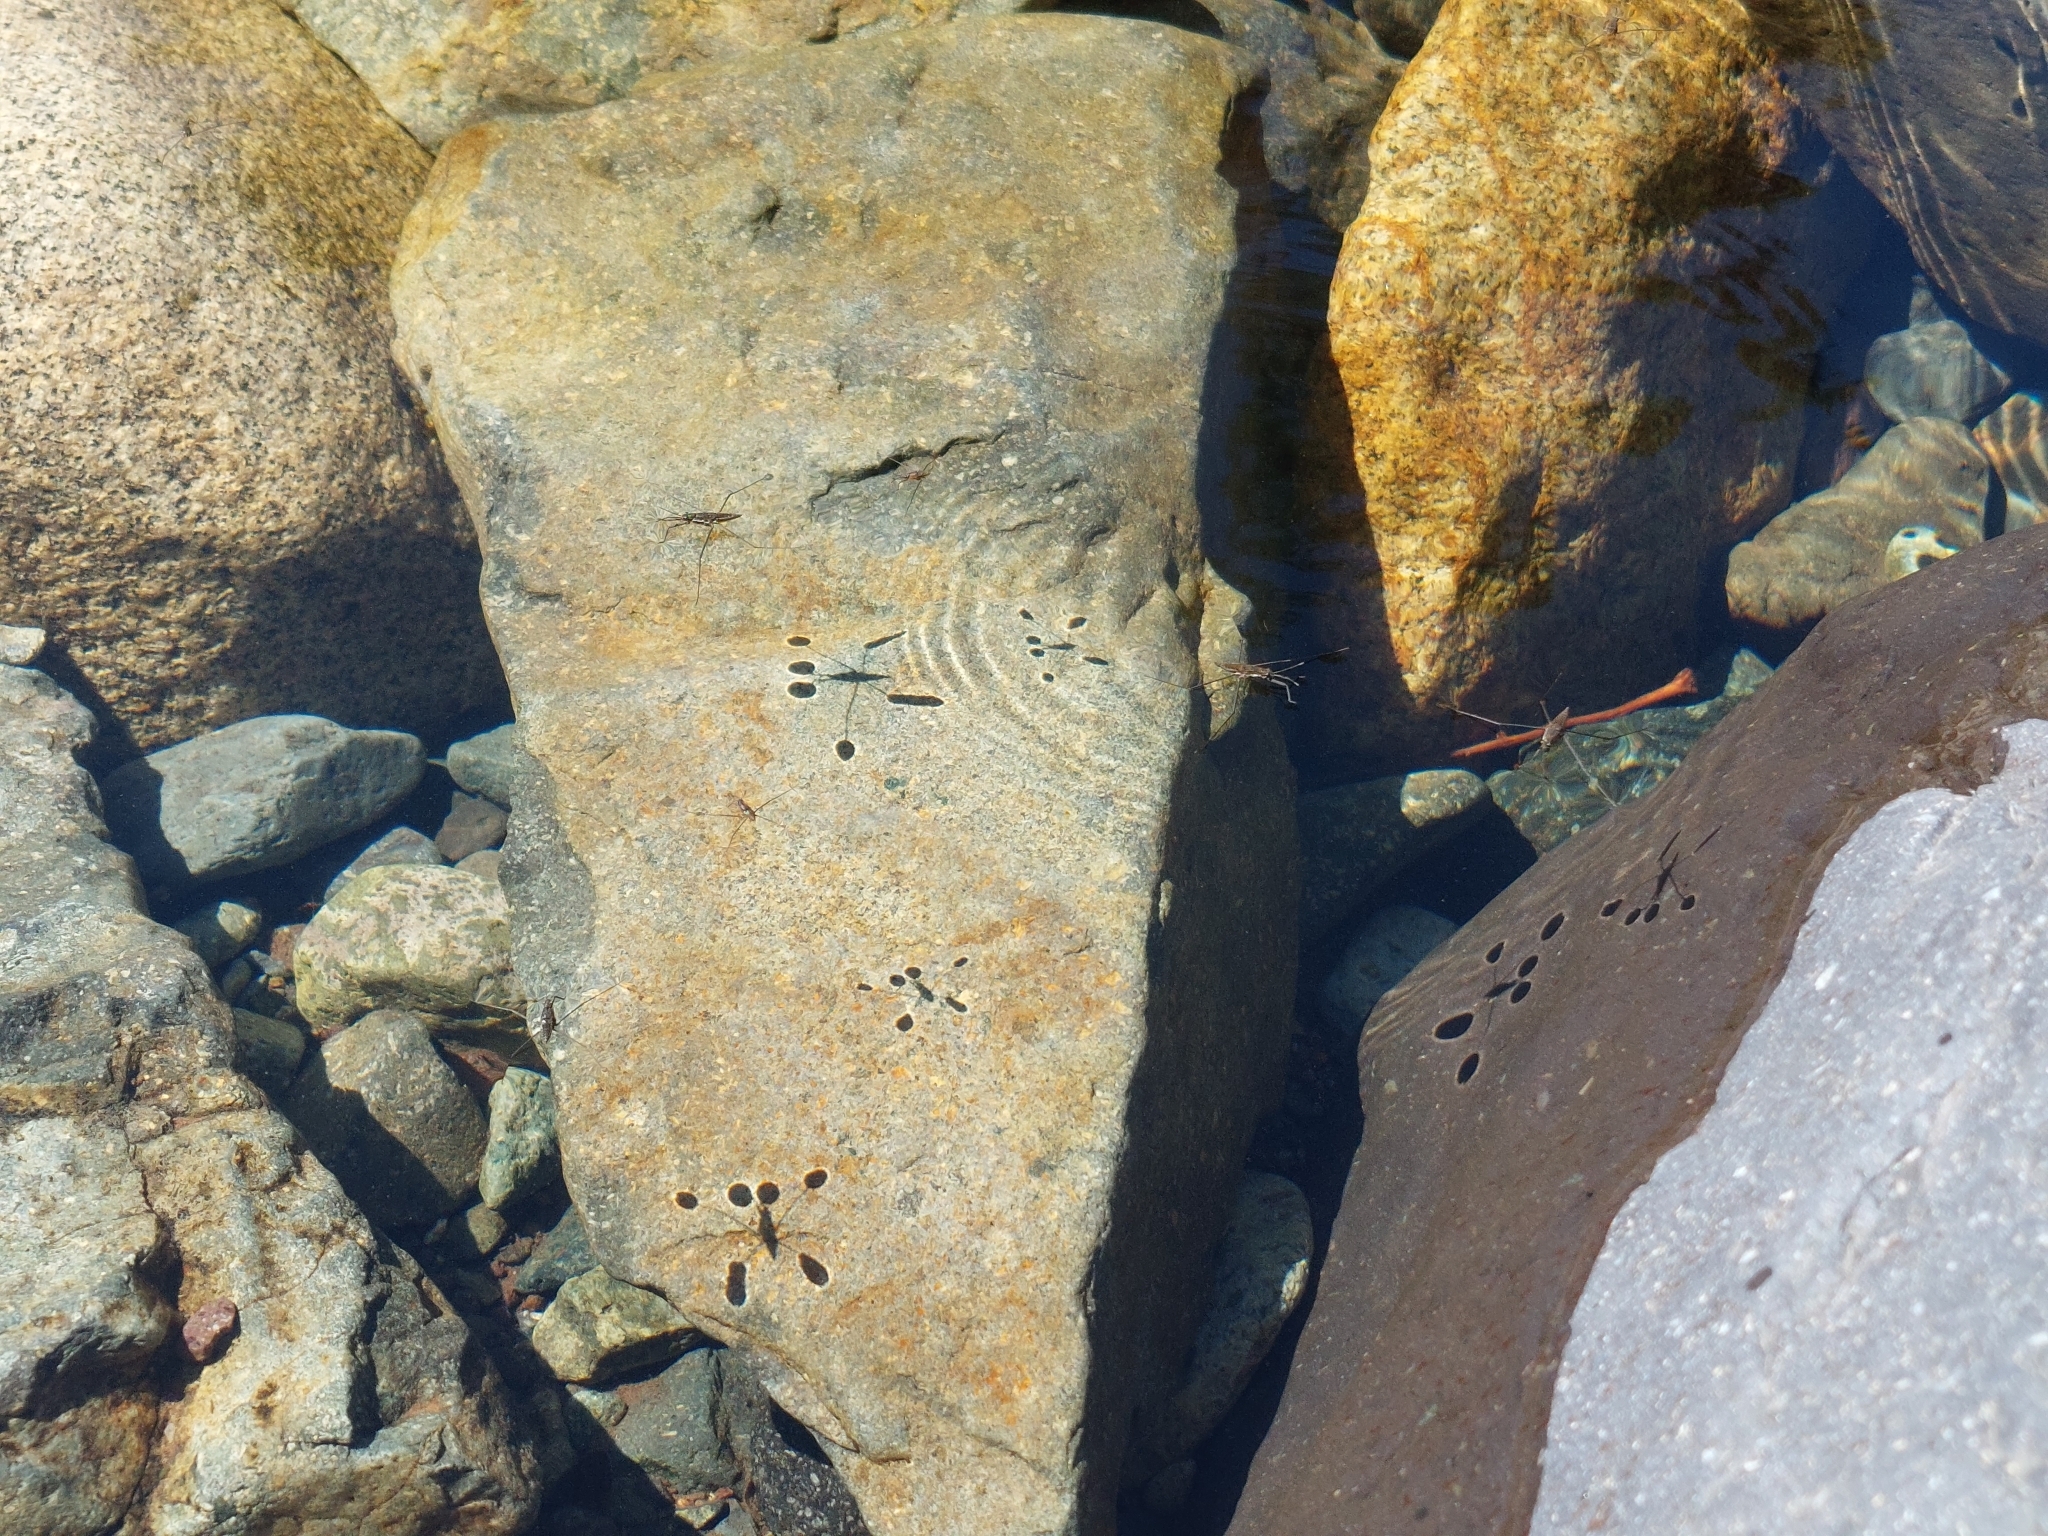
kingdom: Animalia
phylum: Arthropoda
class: Insecta
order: Hemiptera
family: Gerridae
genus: Aquarius
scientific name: Aquarius chilensis
